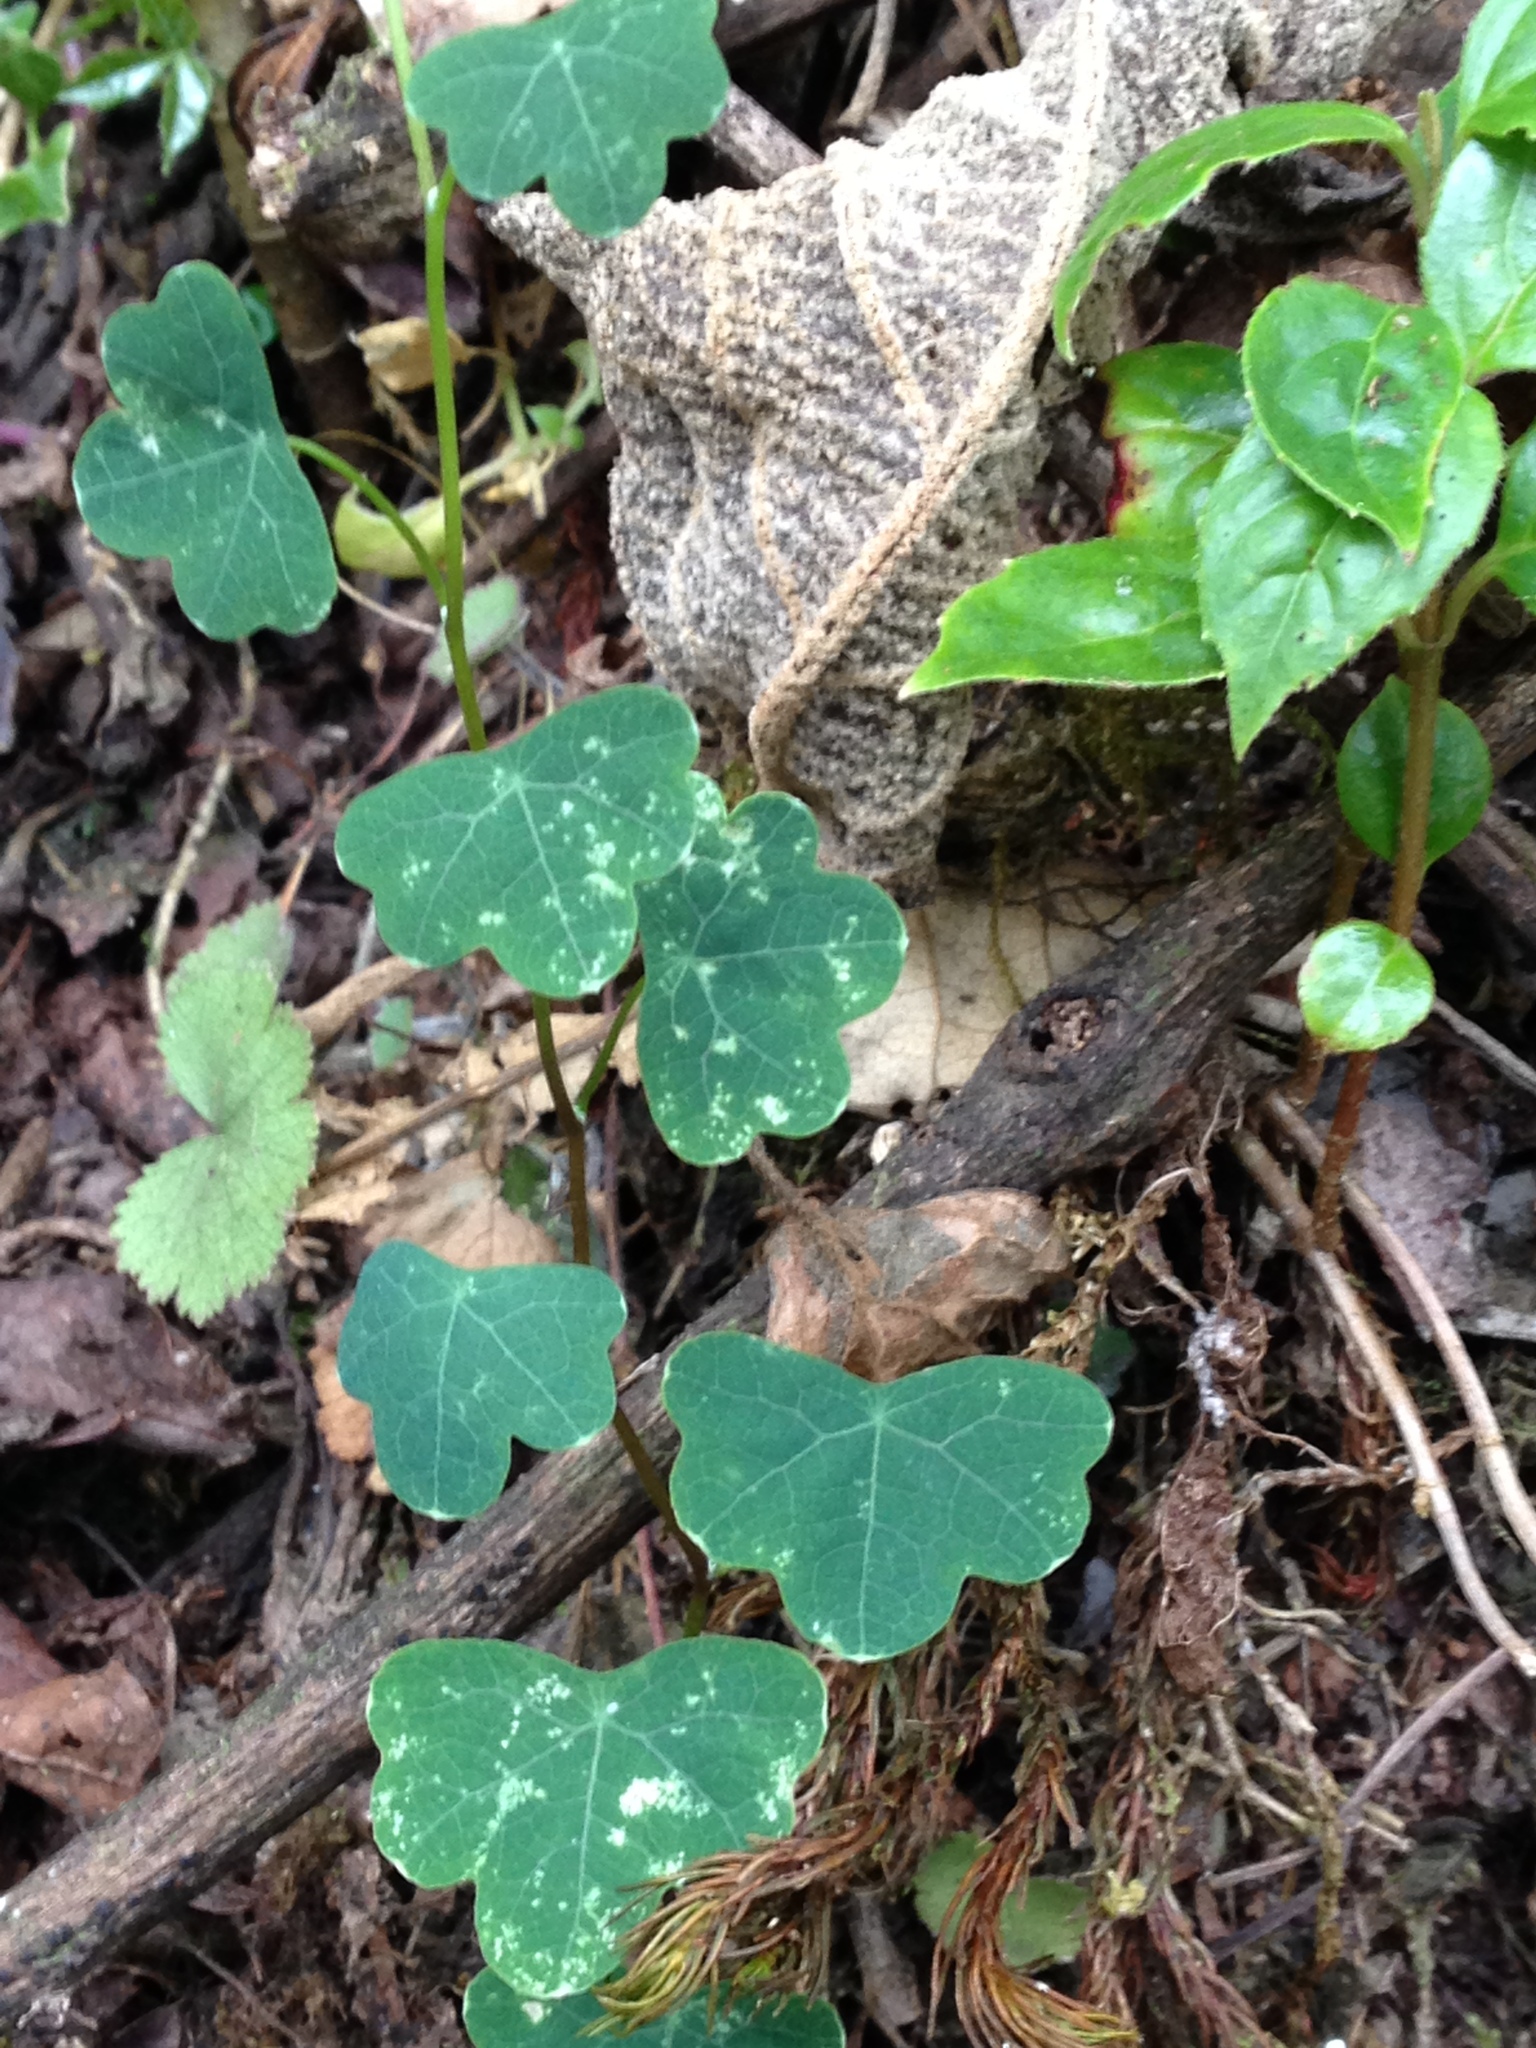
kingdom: Plantae
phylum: Tracheophyta
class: Magnoliopsida
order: Brassicales
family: Tropaeolaceae
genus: Tropaeolum
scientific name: Tropaeolum emarginatum
